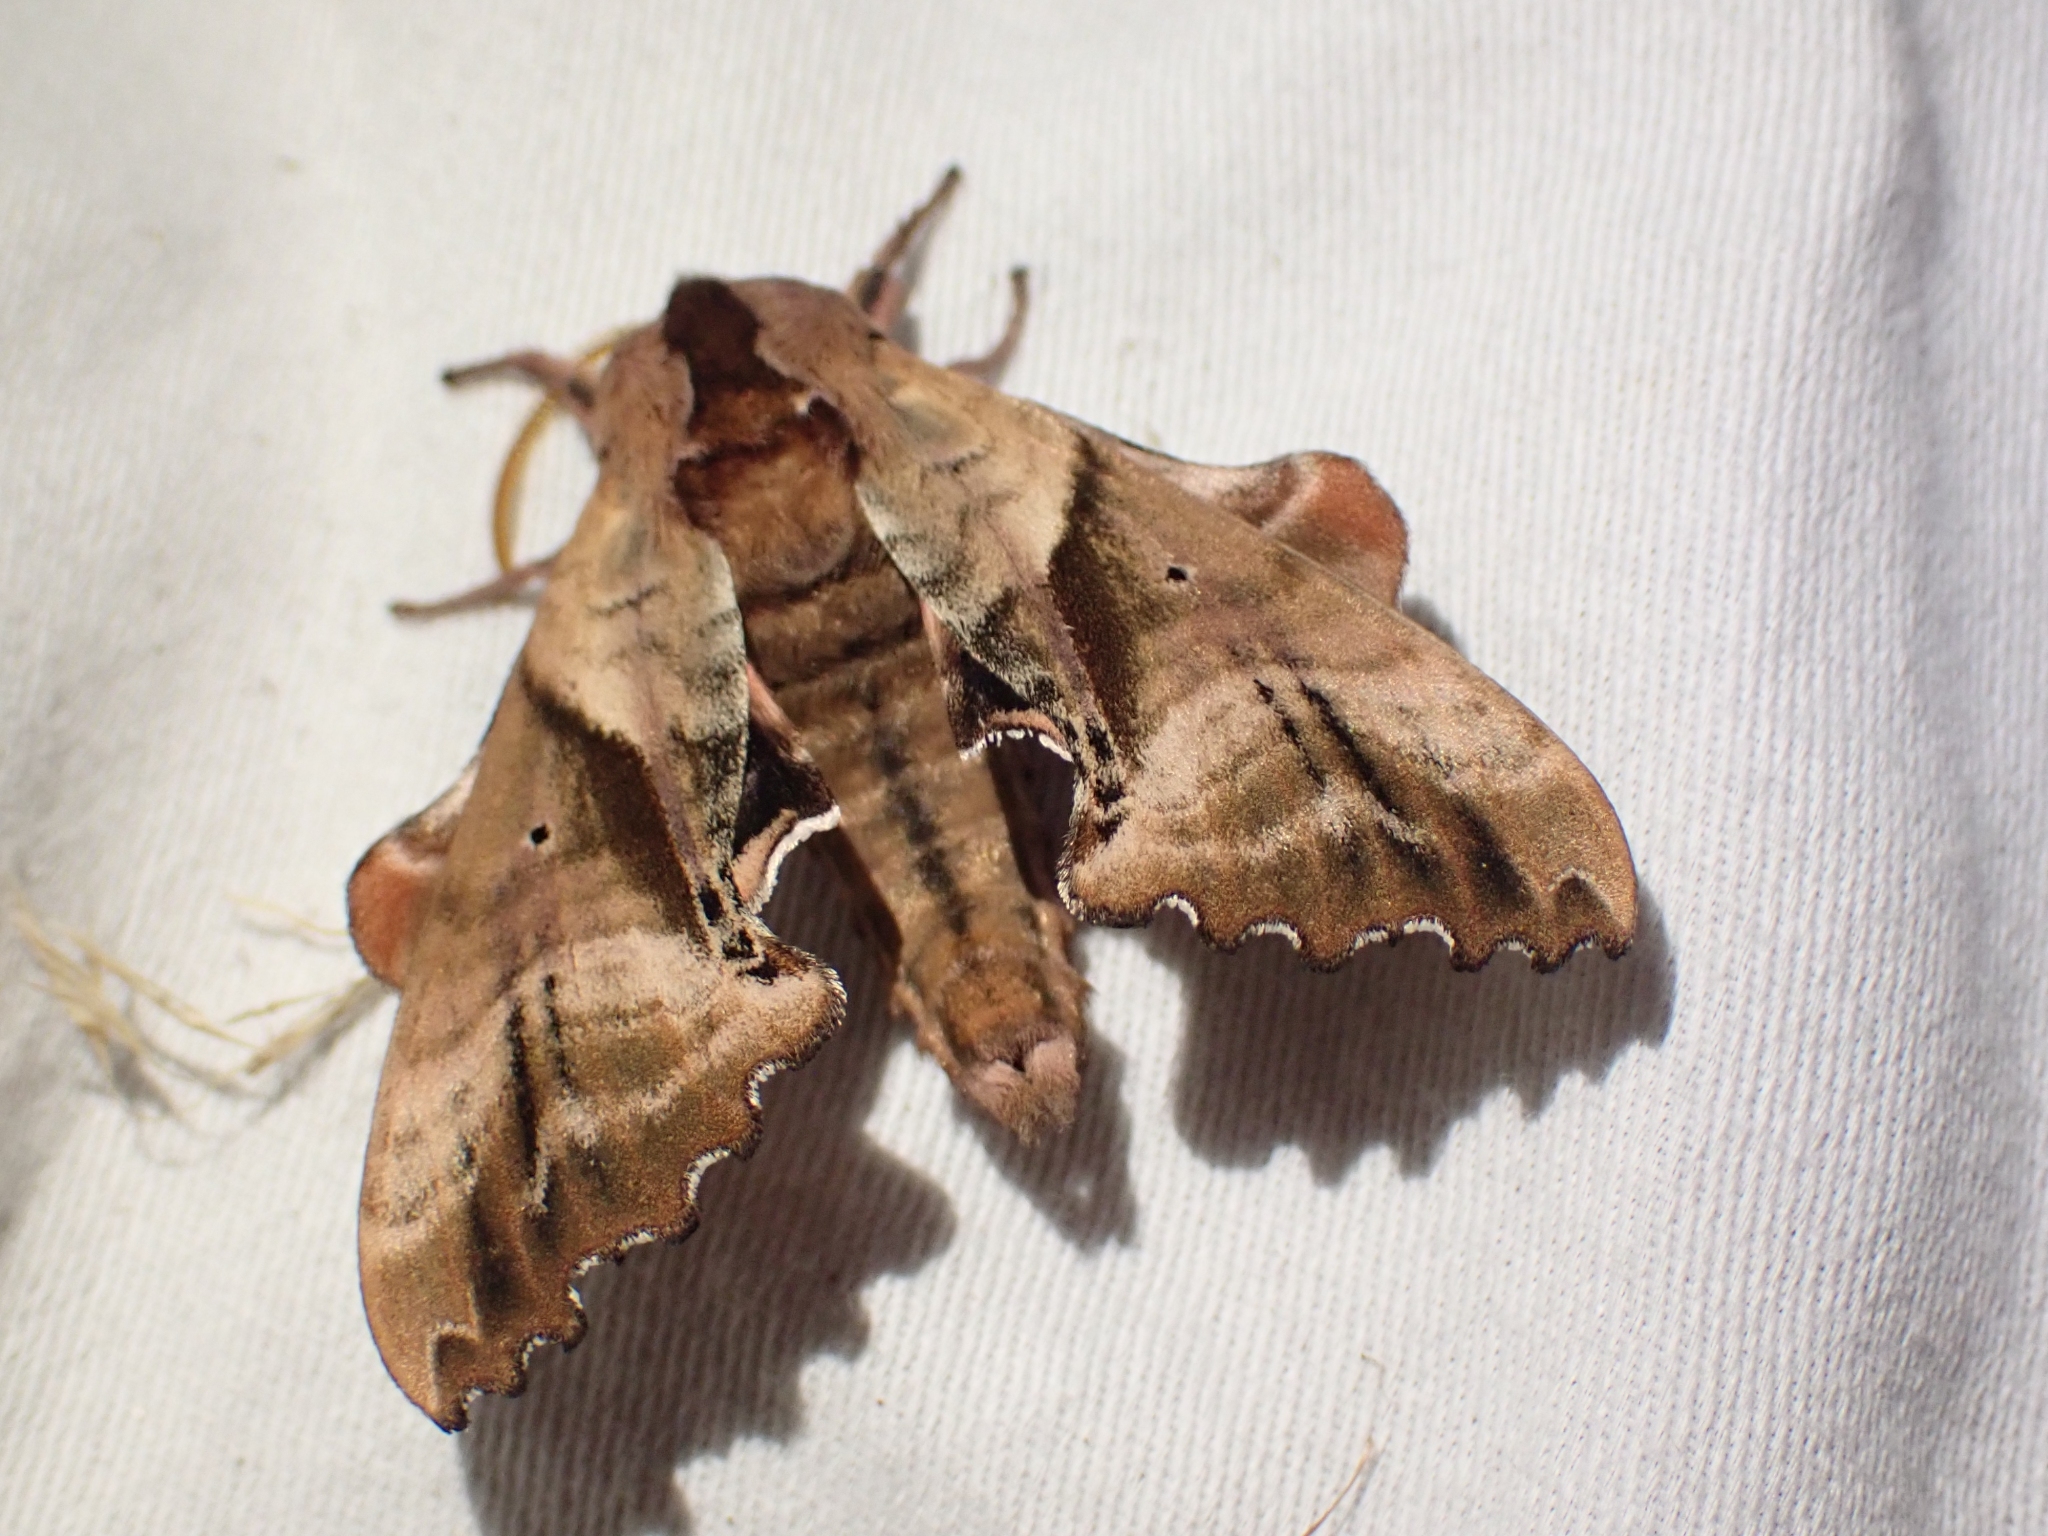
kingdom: Animalia
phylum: Arthropoda
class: Insecta
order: Lepidoptera
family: Sphingidae
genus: Paonias
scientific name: Paonias excaecata
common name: Blind-eyed sphinx
